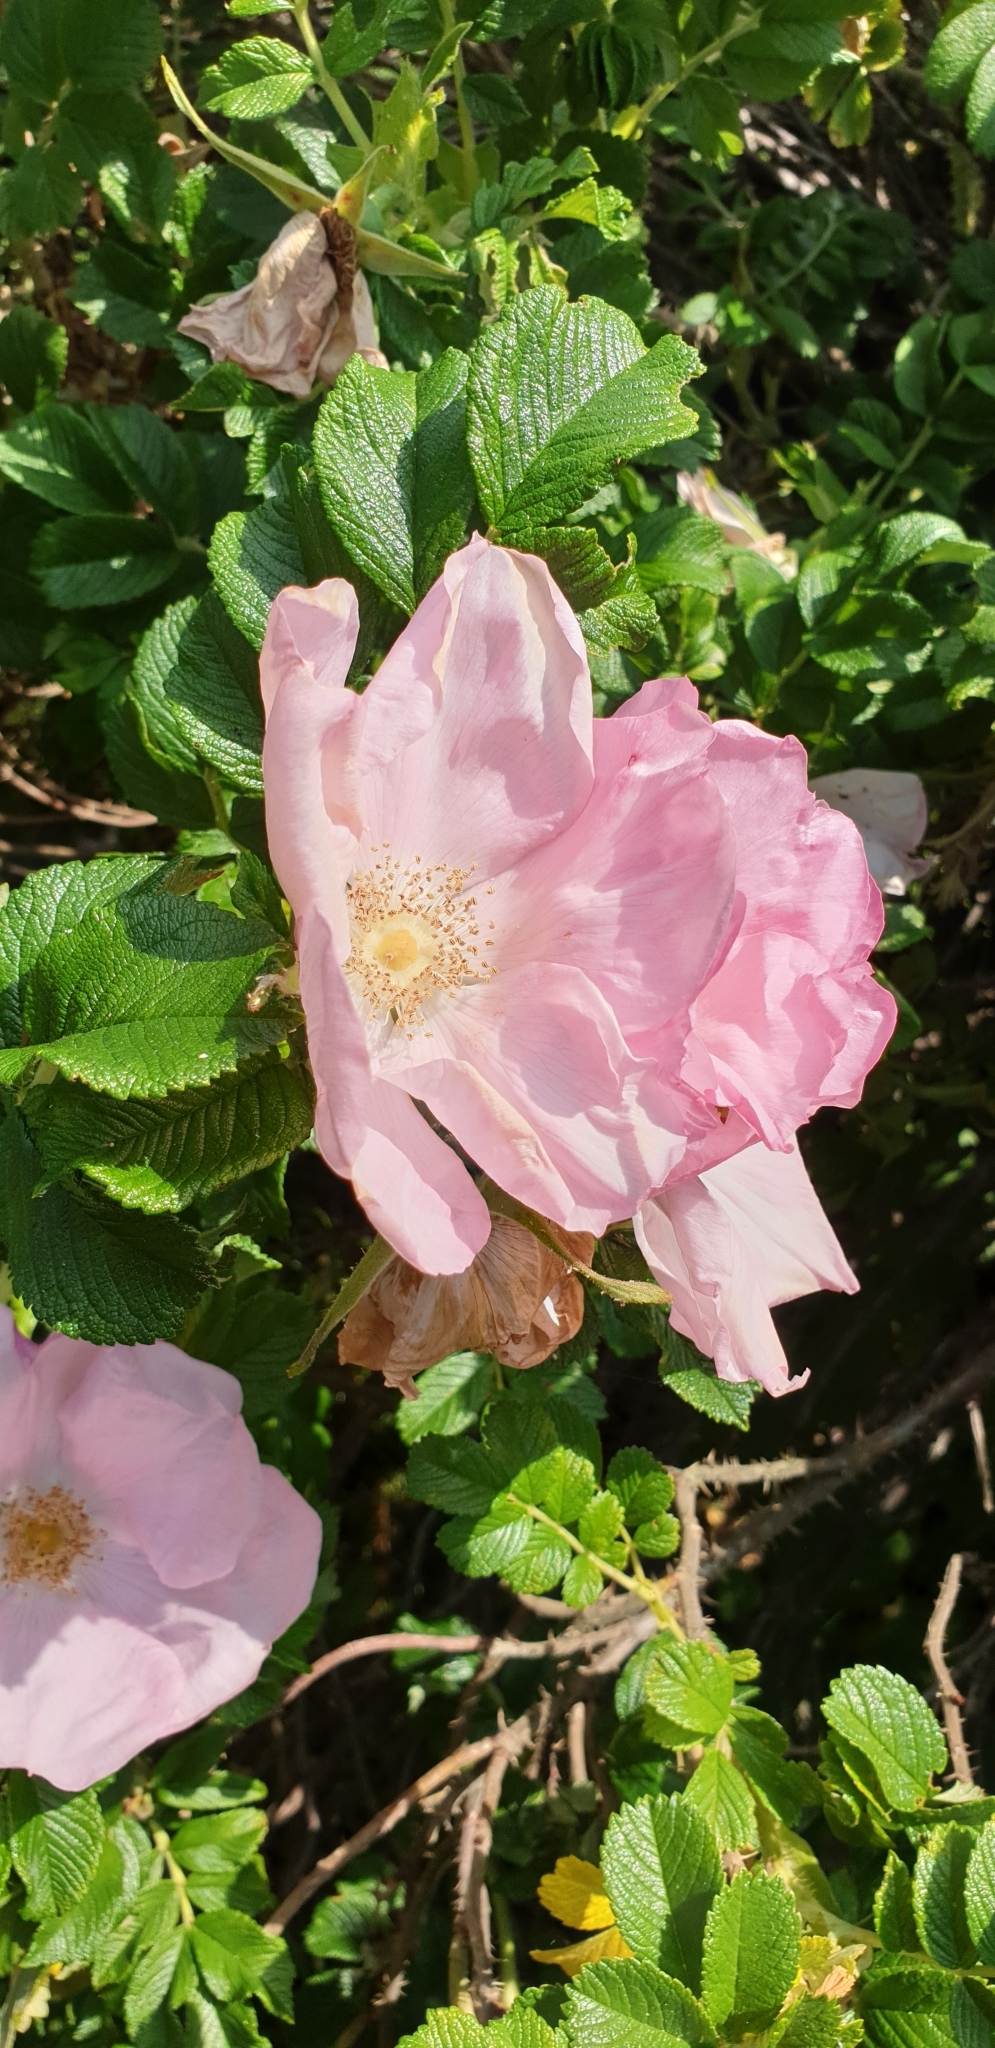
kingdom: Plantae
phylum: Tracheophyta
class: Magnoliopsida
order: Rosales
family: Rosaceae
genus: Rosa
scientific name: Rosa rugosa
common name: Japanese rose
